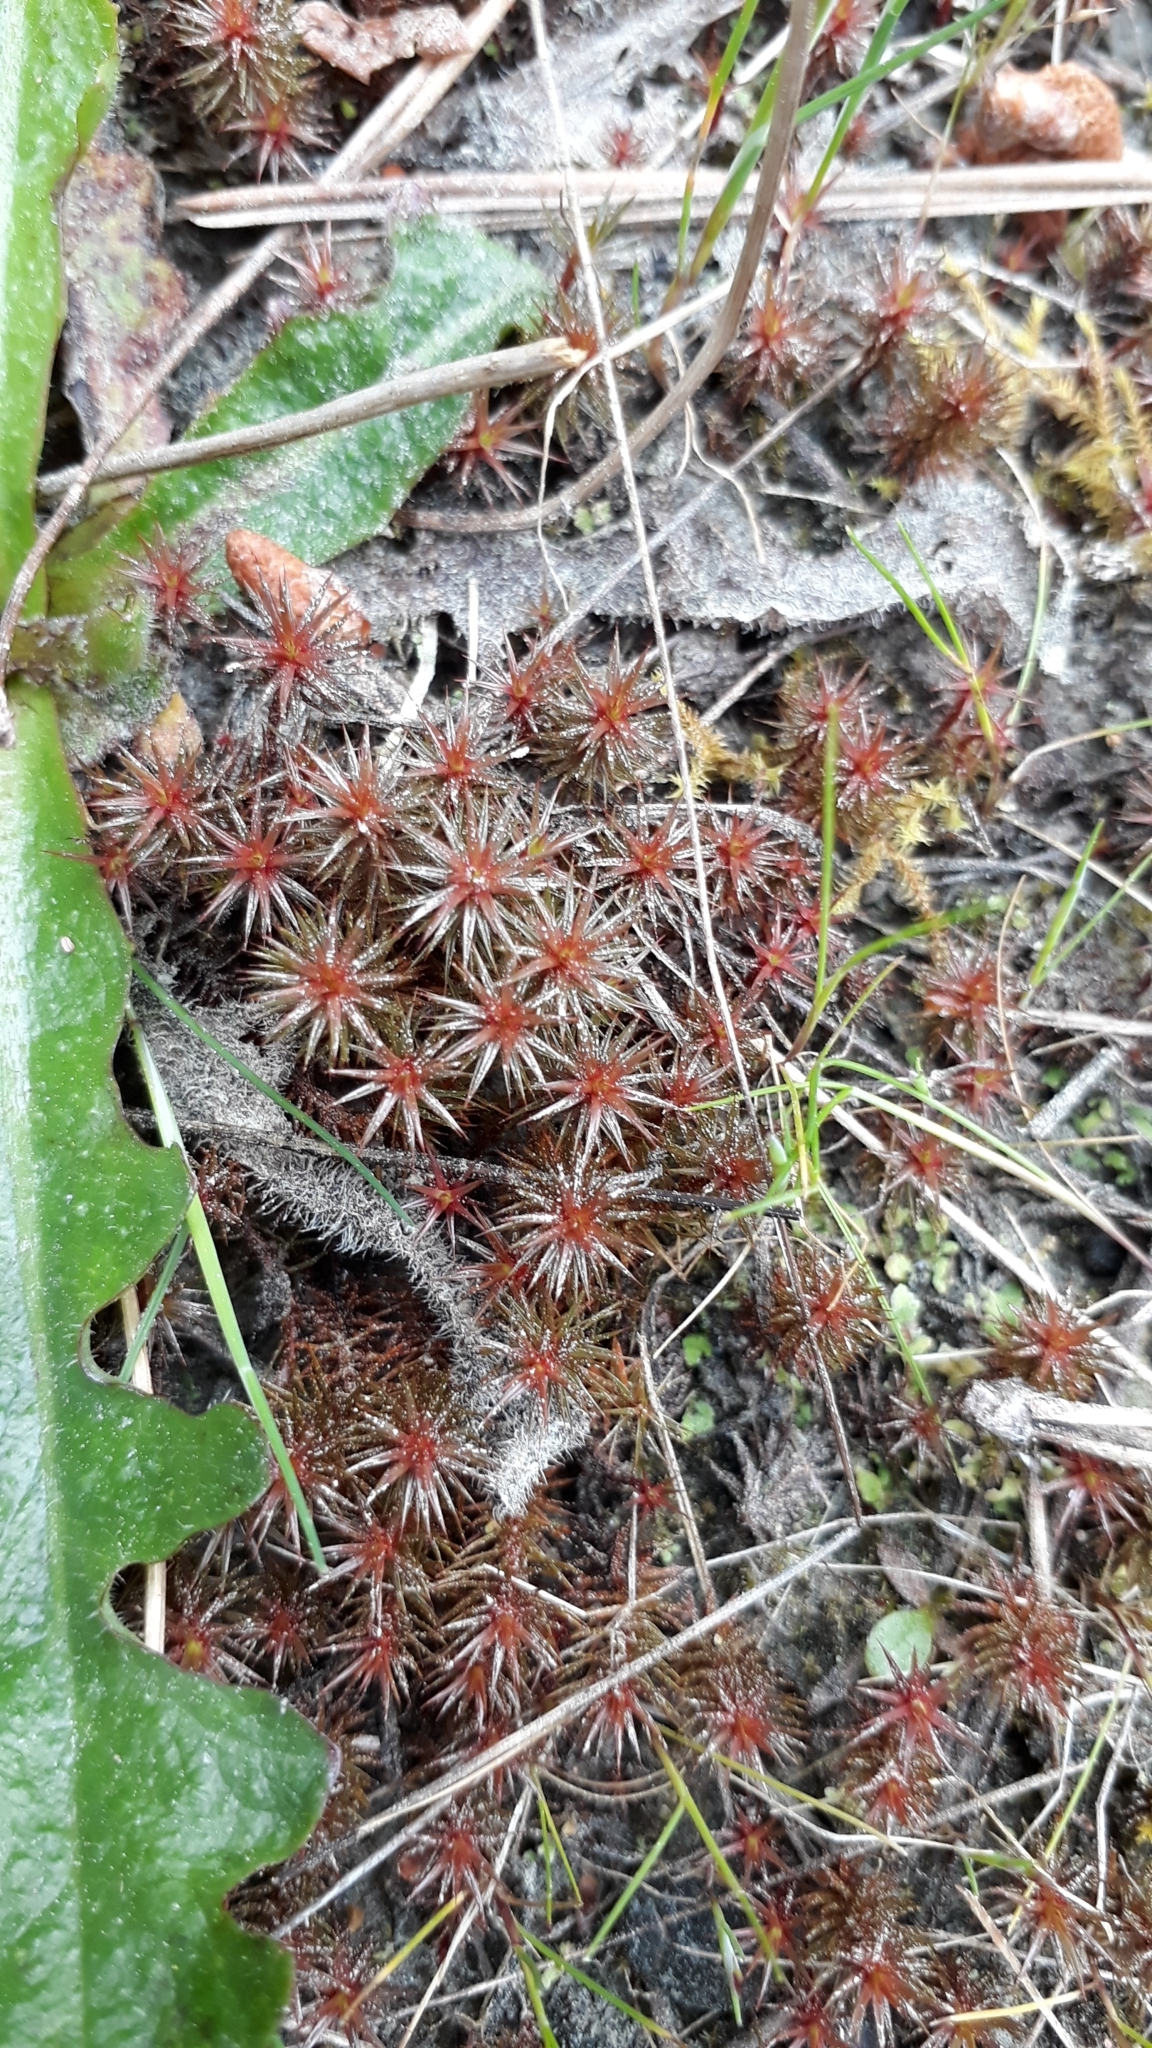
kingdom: Plantae
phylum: Bryophyta
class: Polytrichopsida
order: Polytrichales
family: Polytrichaceae
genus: Polytrichum
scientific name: Polytrichum juniperinum
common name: Juniper haircap moss
